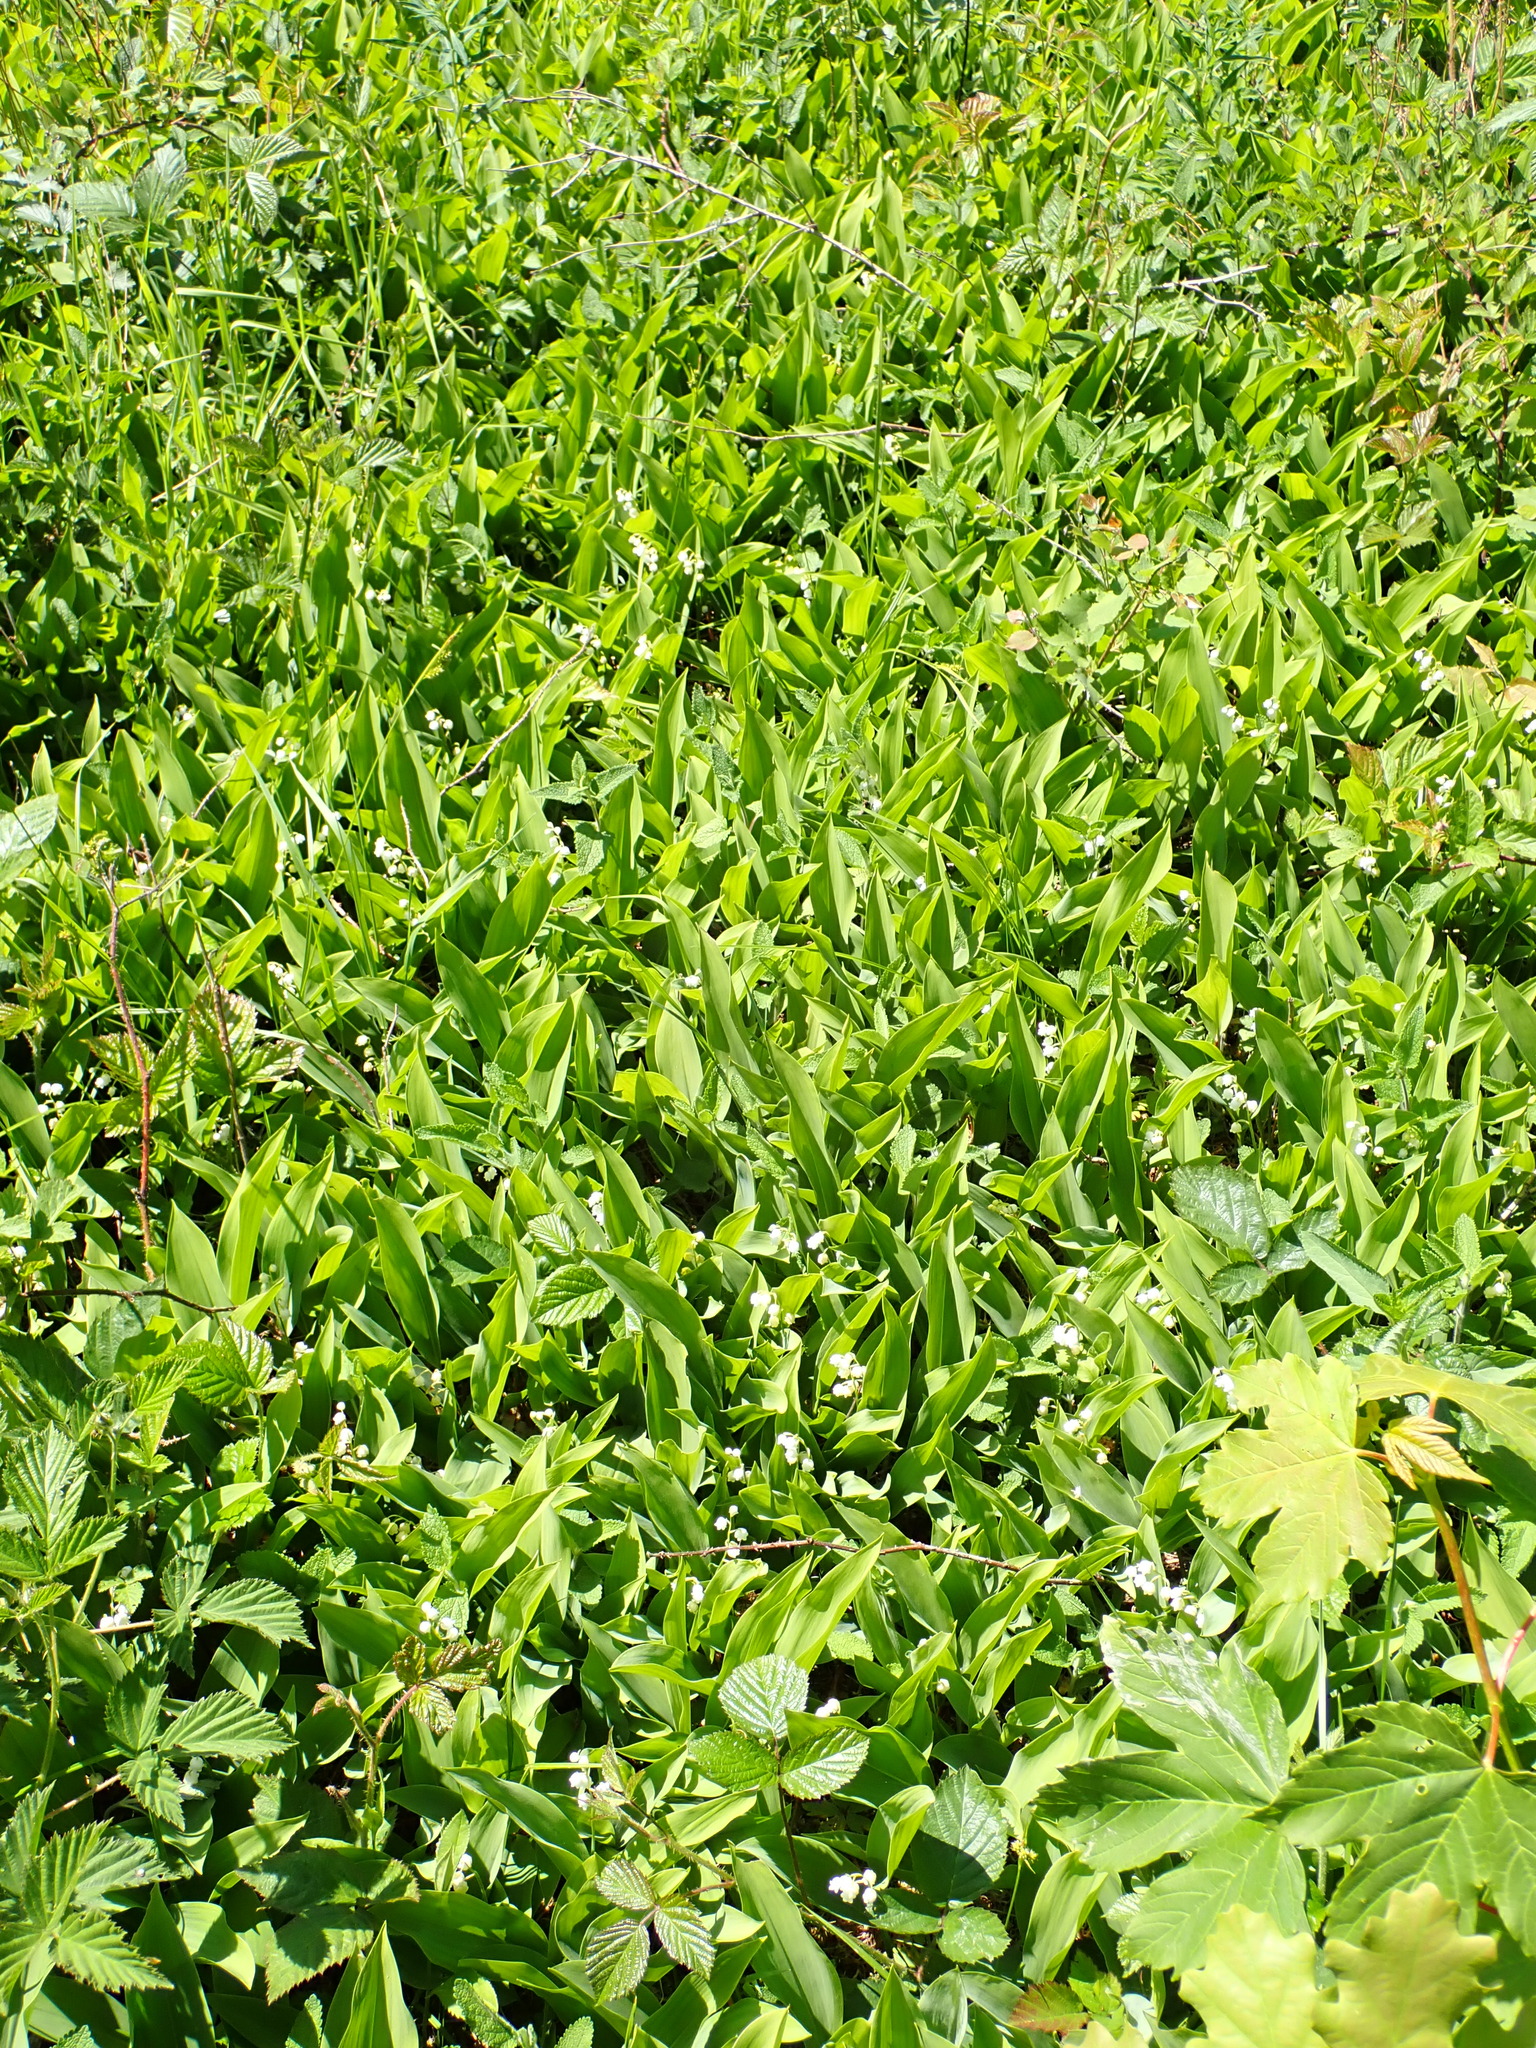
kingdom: Plantae
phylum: Tracheophyta
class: Liliopsida
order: Asparagales
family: Asparagaceae
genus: Convallaria
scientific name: Convallaria majalis
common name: Lily-of-the-valley
